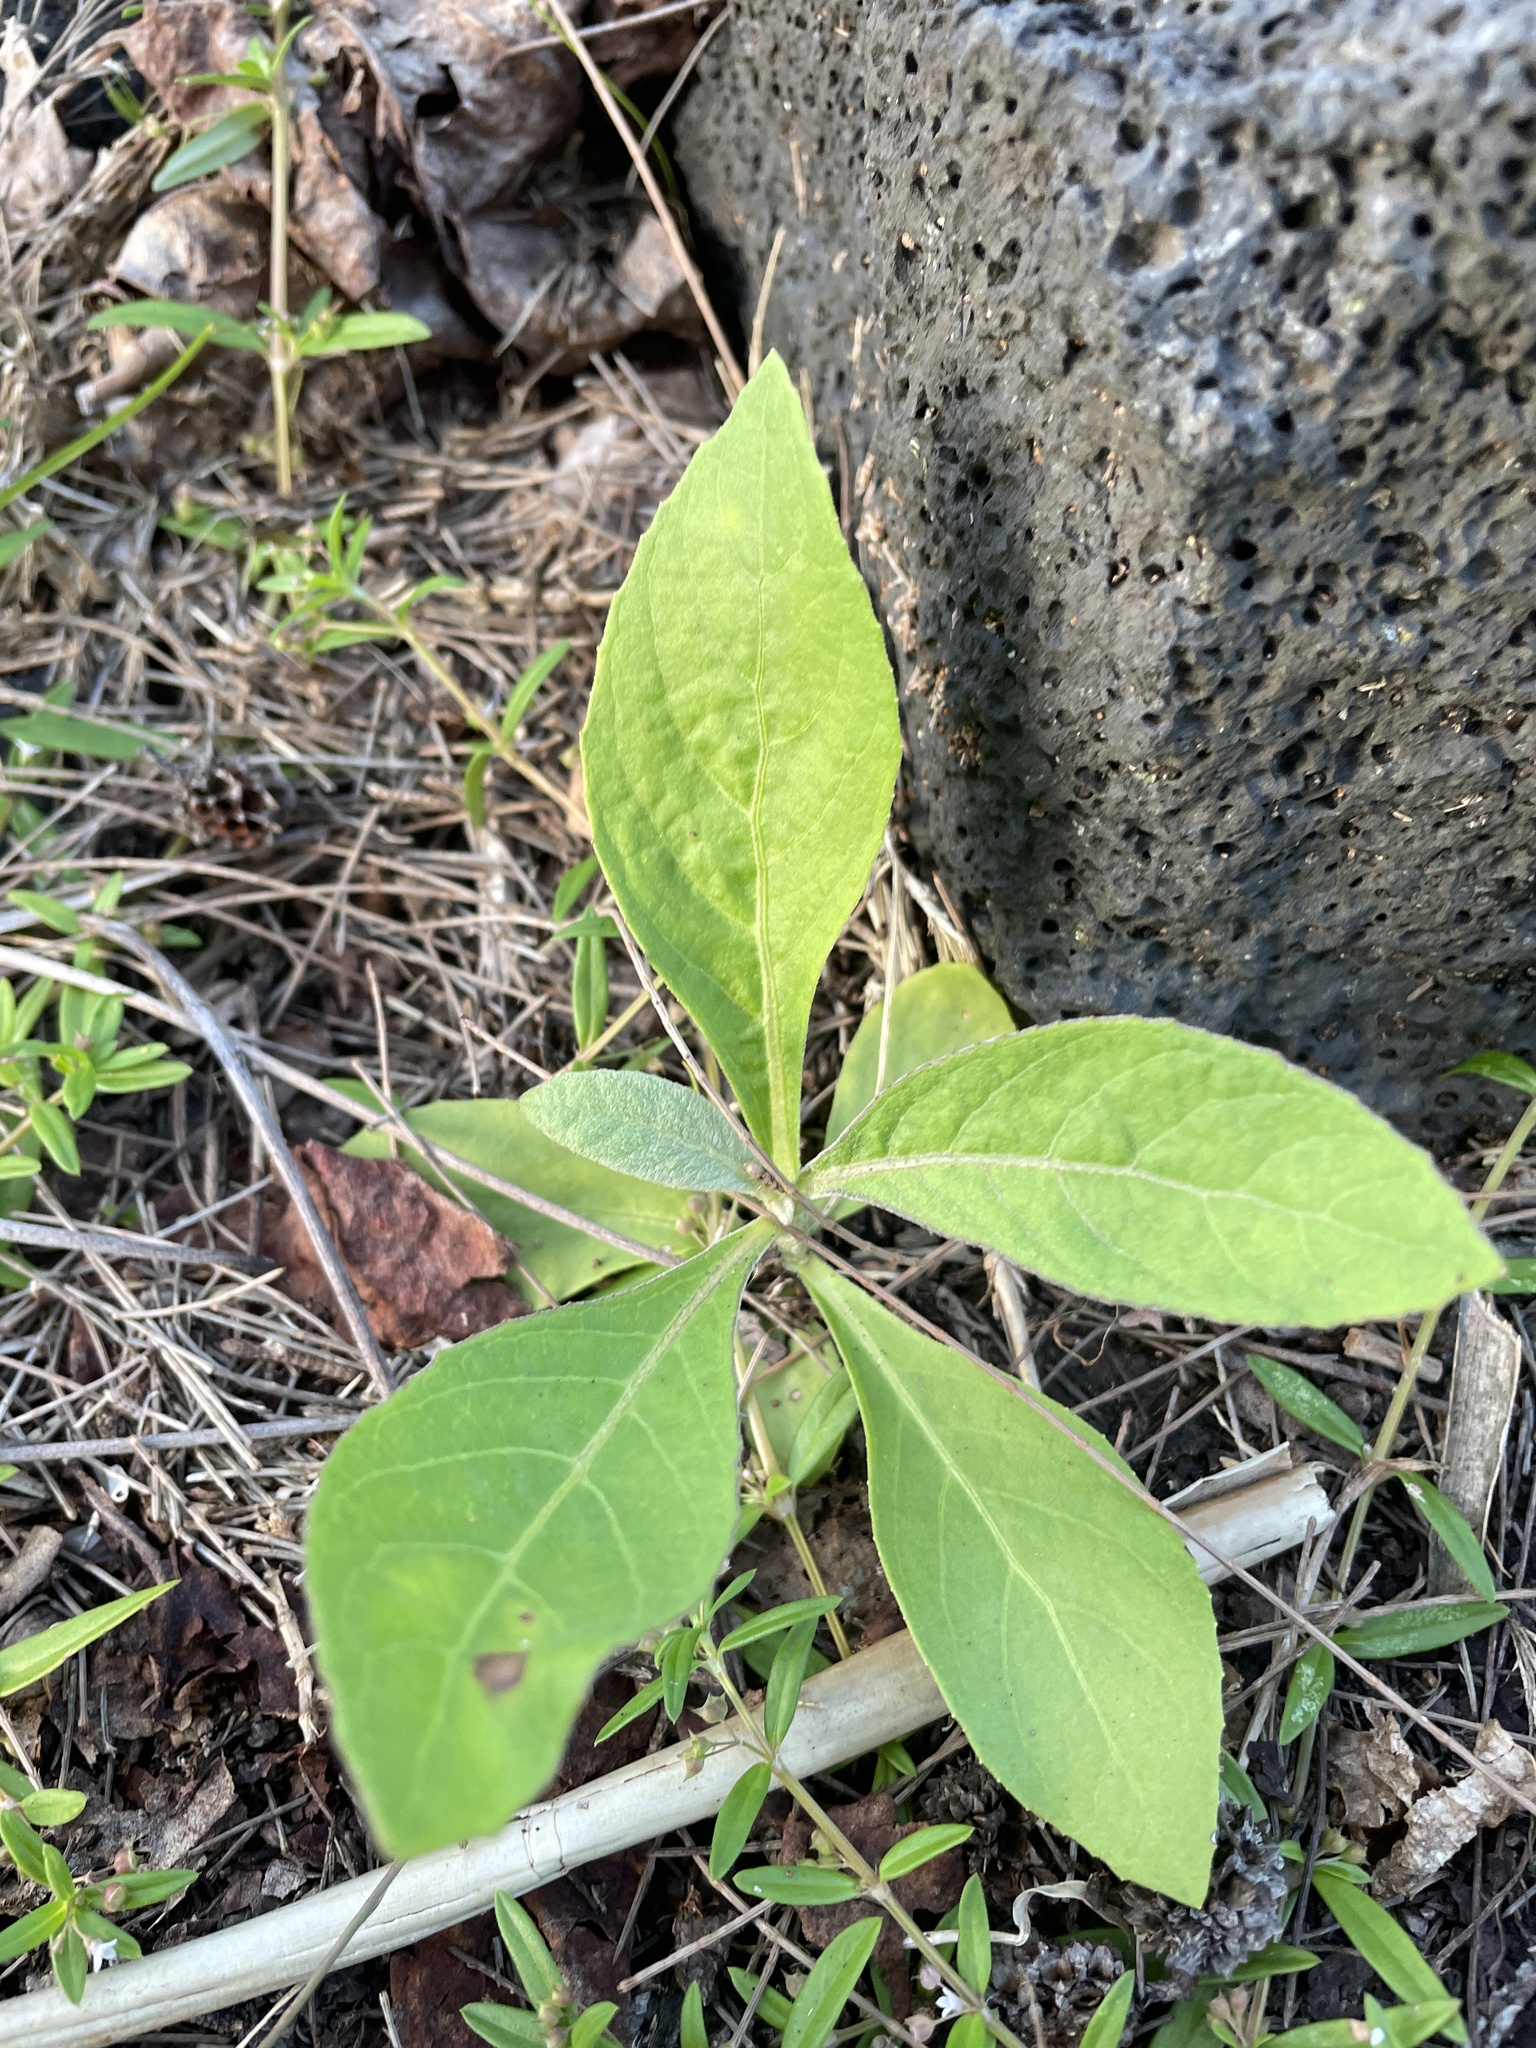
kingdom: Plantae
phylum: Tracheophyta
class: Magnoliopsida
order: Asterales
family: Asteraceae
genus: Pluchea
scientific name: Pluchea carolinensis
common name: Marsh fleabane
